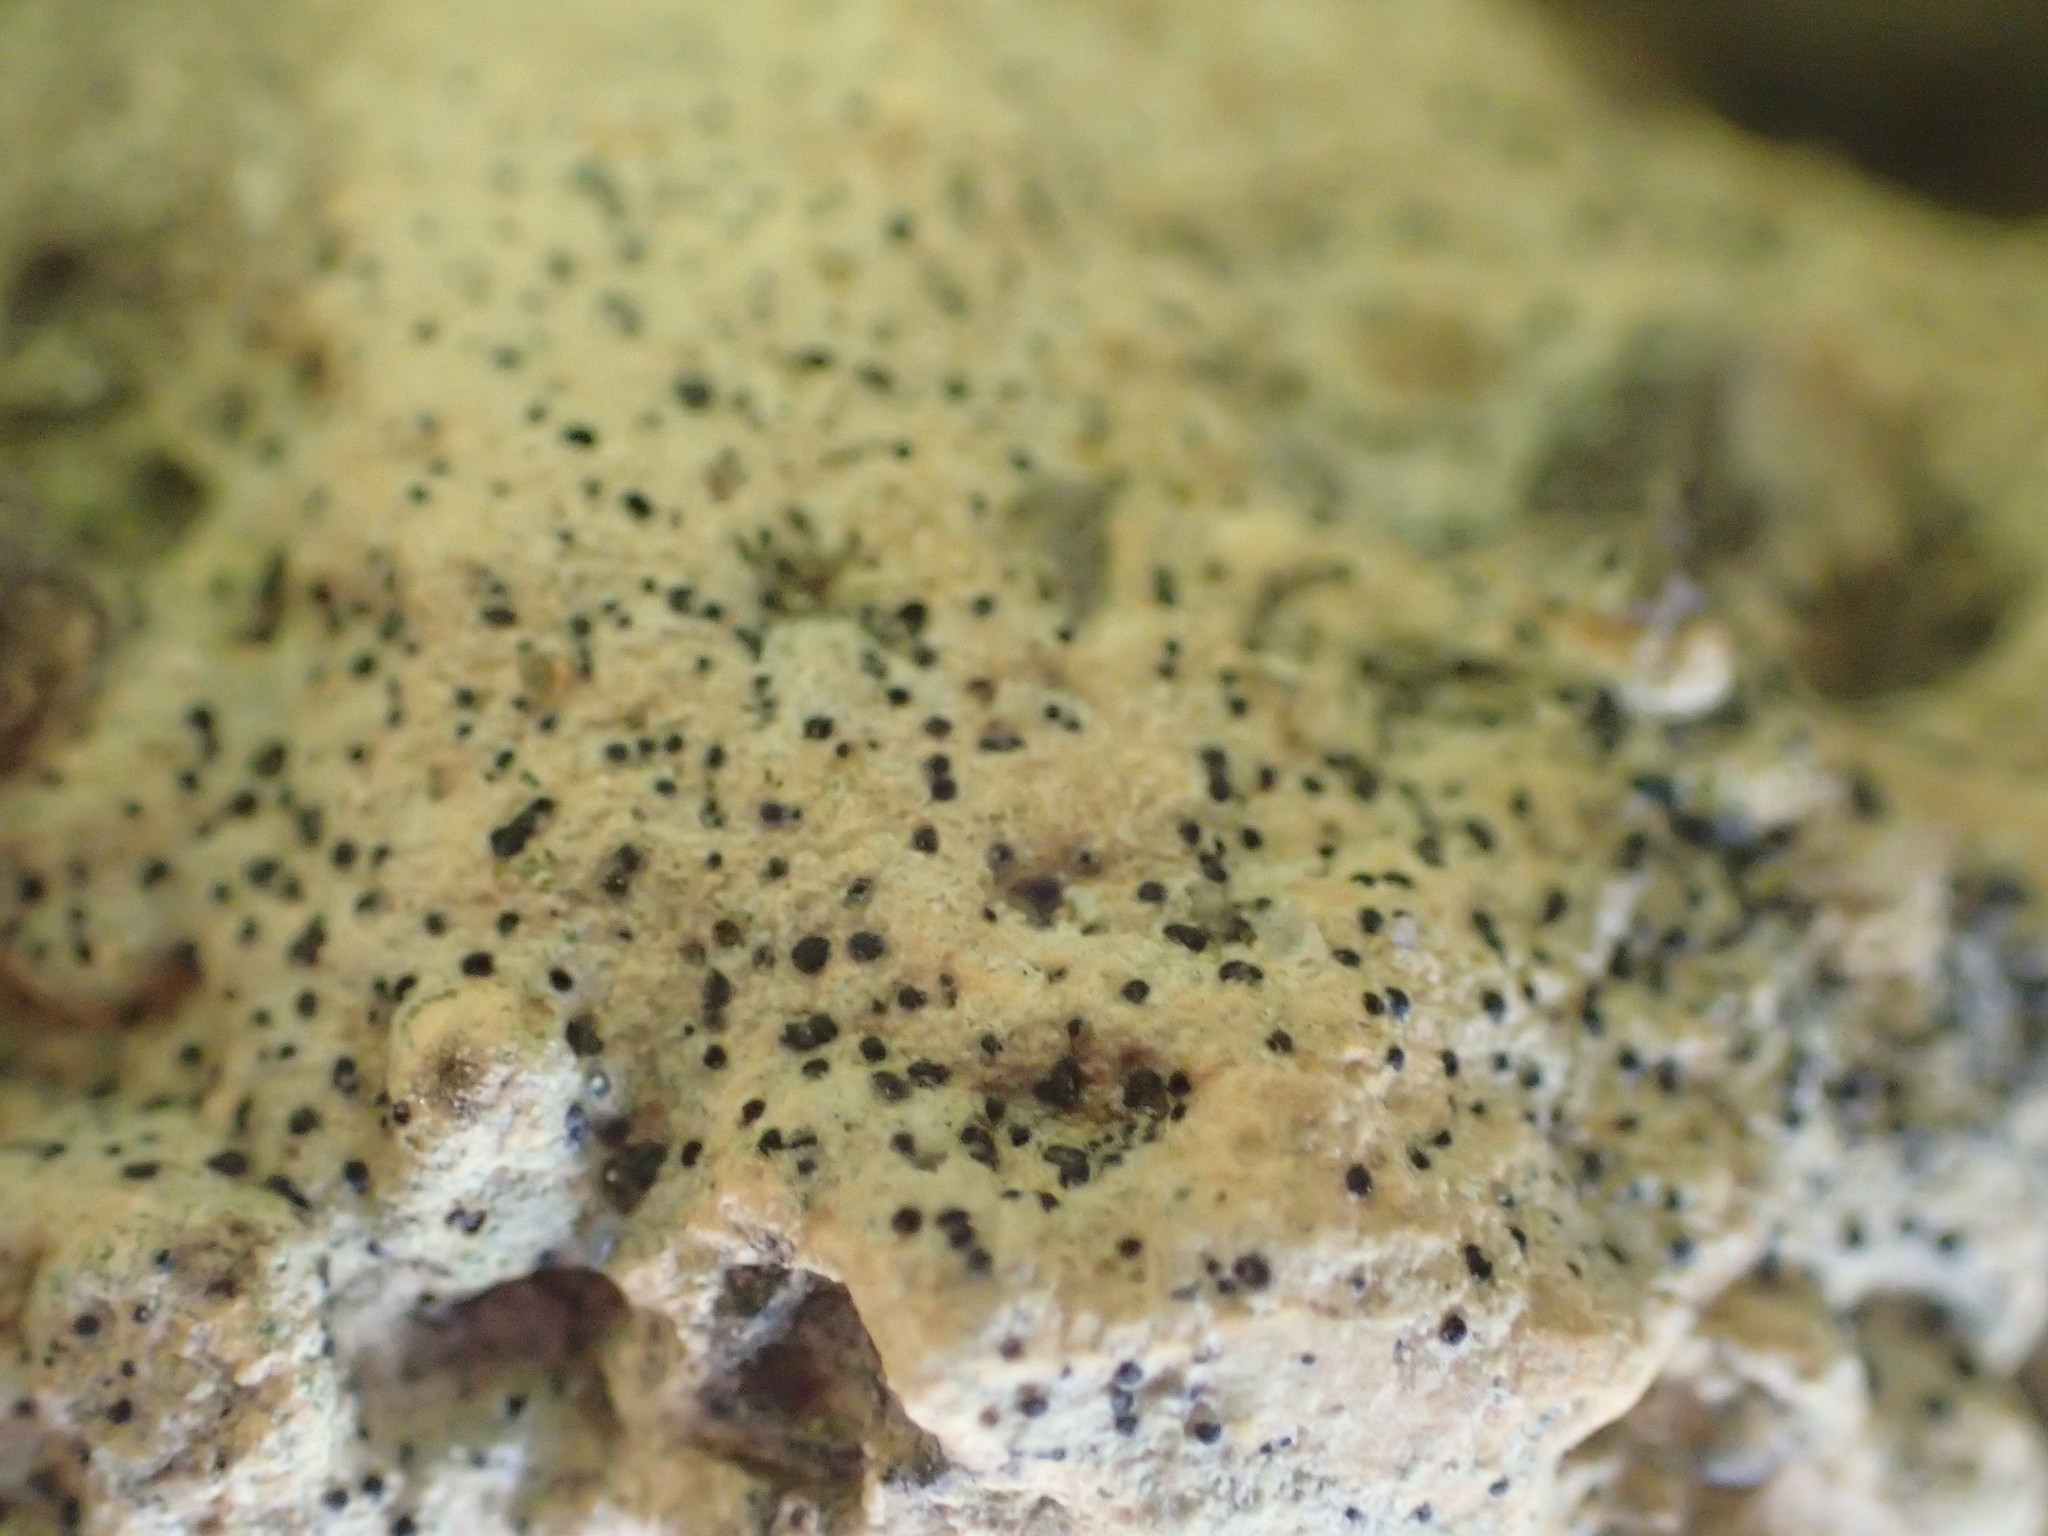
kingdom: Fungi
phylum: Ascomycota
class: Eurotiomycetes
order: Verrucariales
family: Verrucariaceae
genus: Bagliettoa
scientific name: Bagliettoa calciseda
